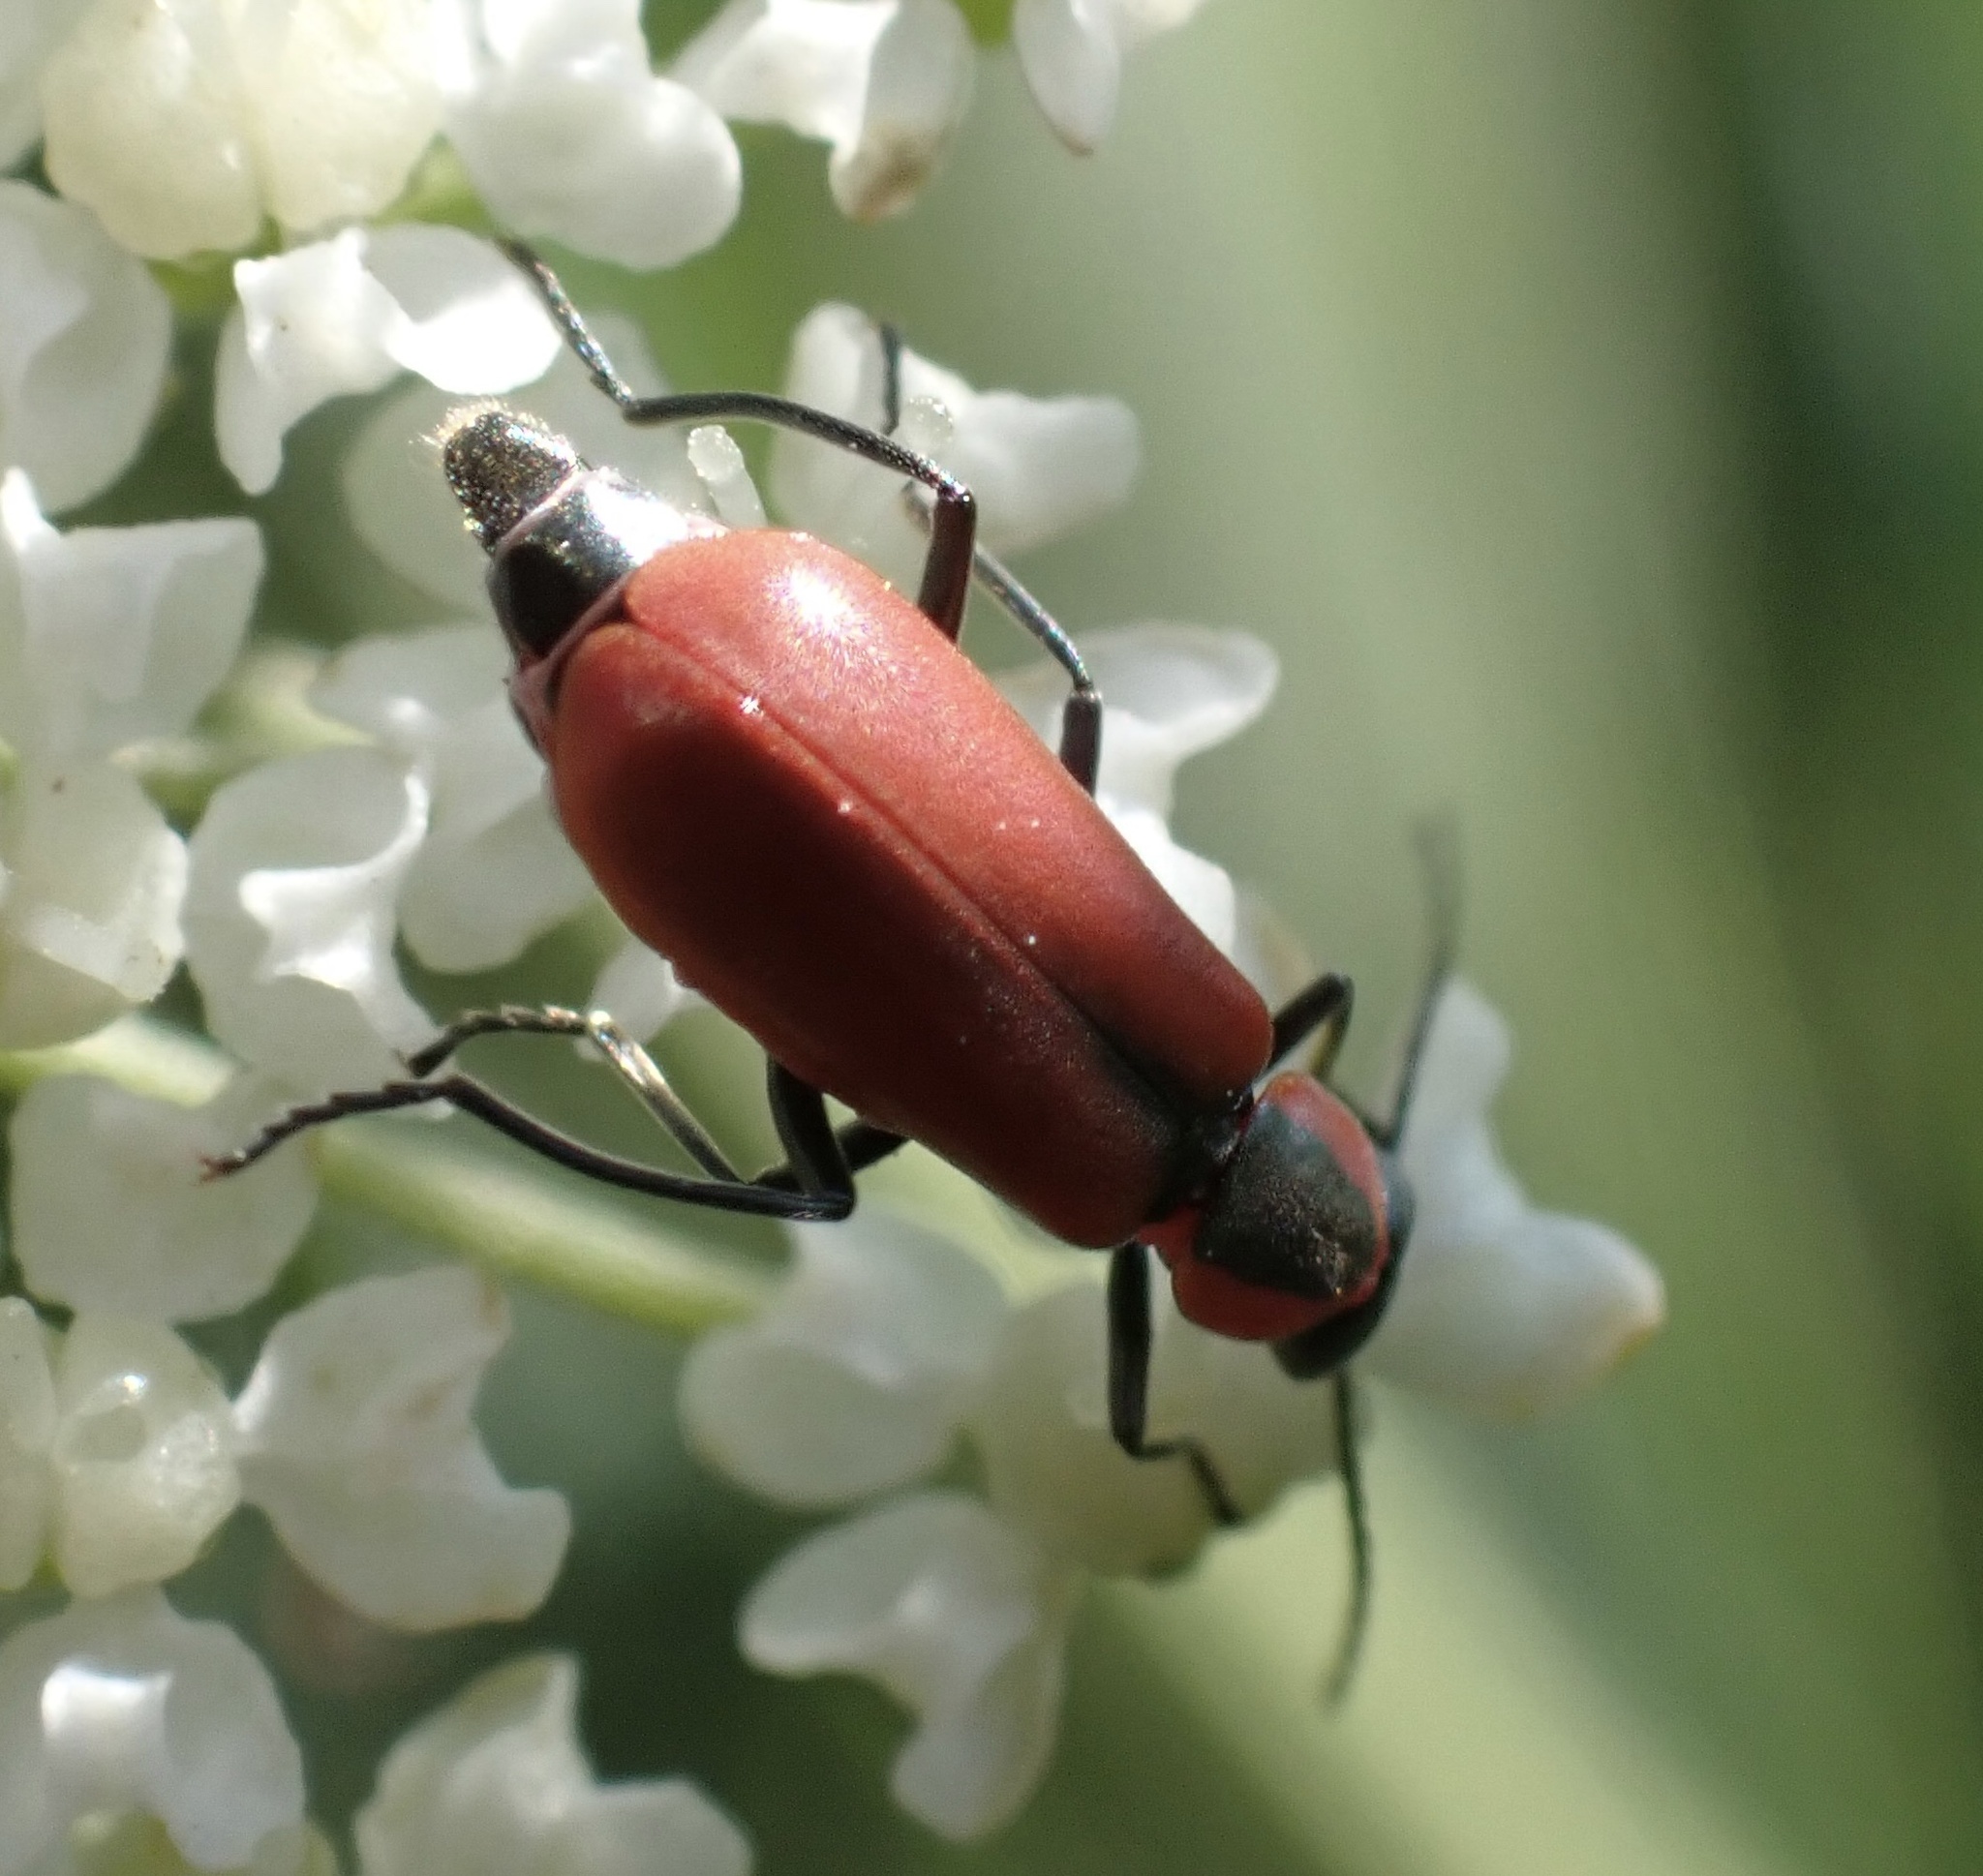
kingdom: Animalia
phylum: Arthropoda
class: Insecta
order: Coleoptera
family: Melyridae
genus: Anthocomus
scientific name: Anthocomus rufus
